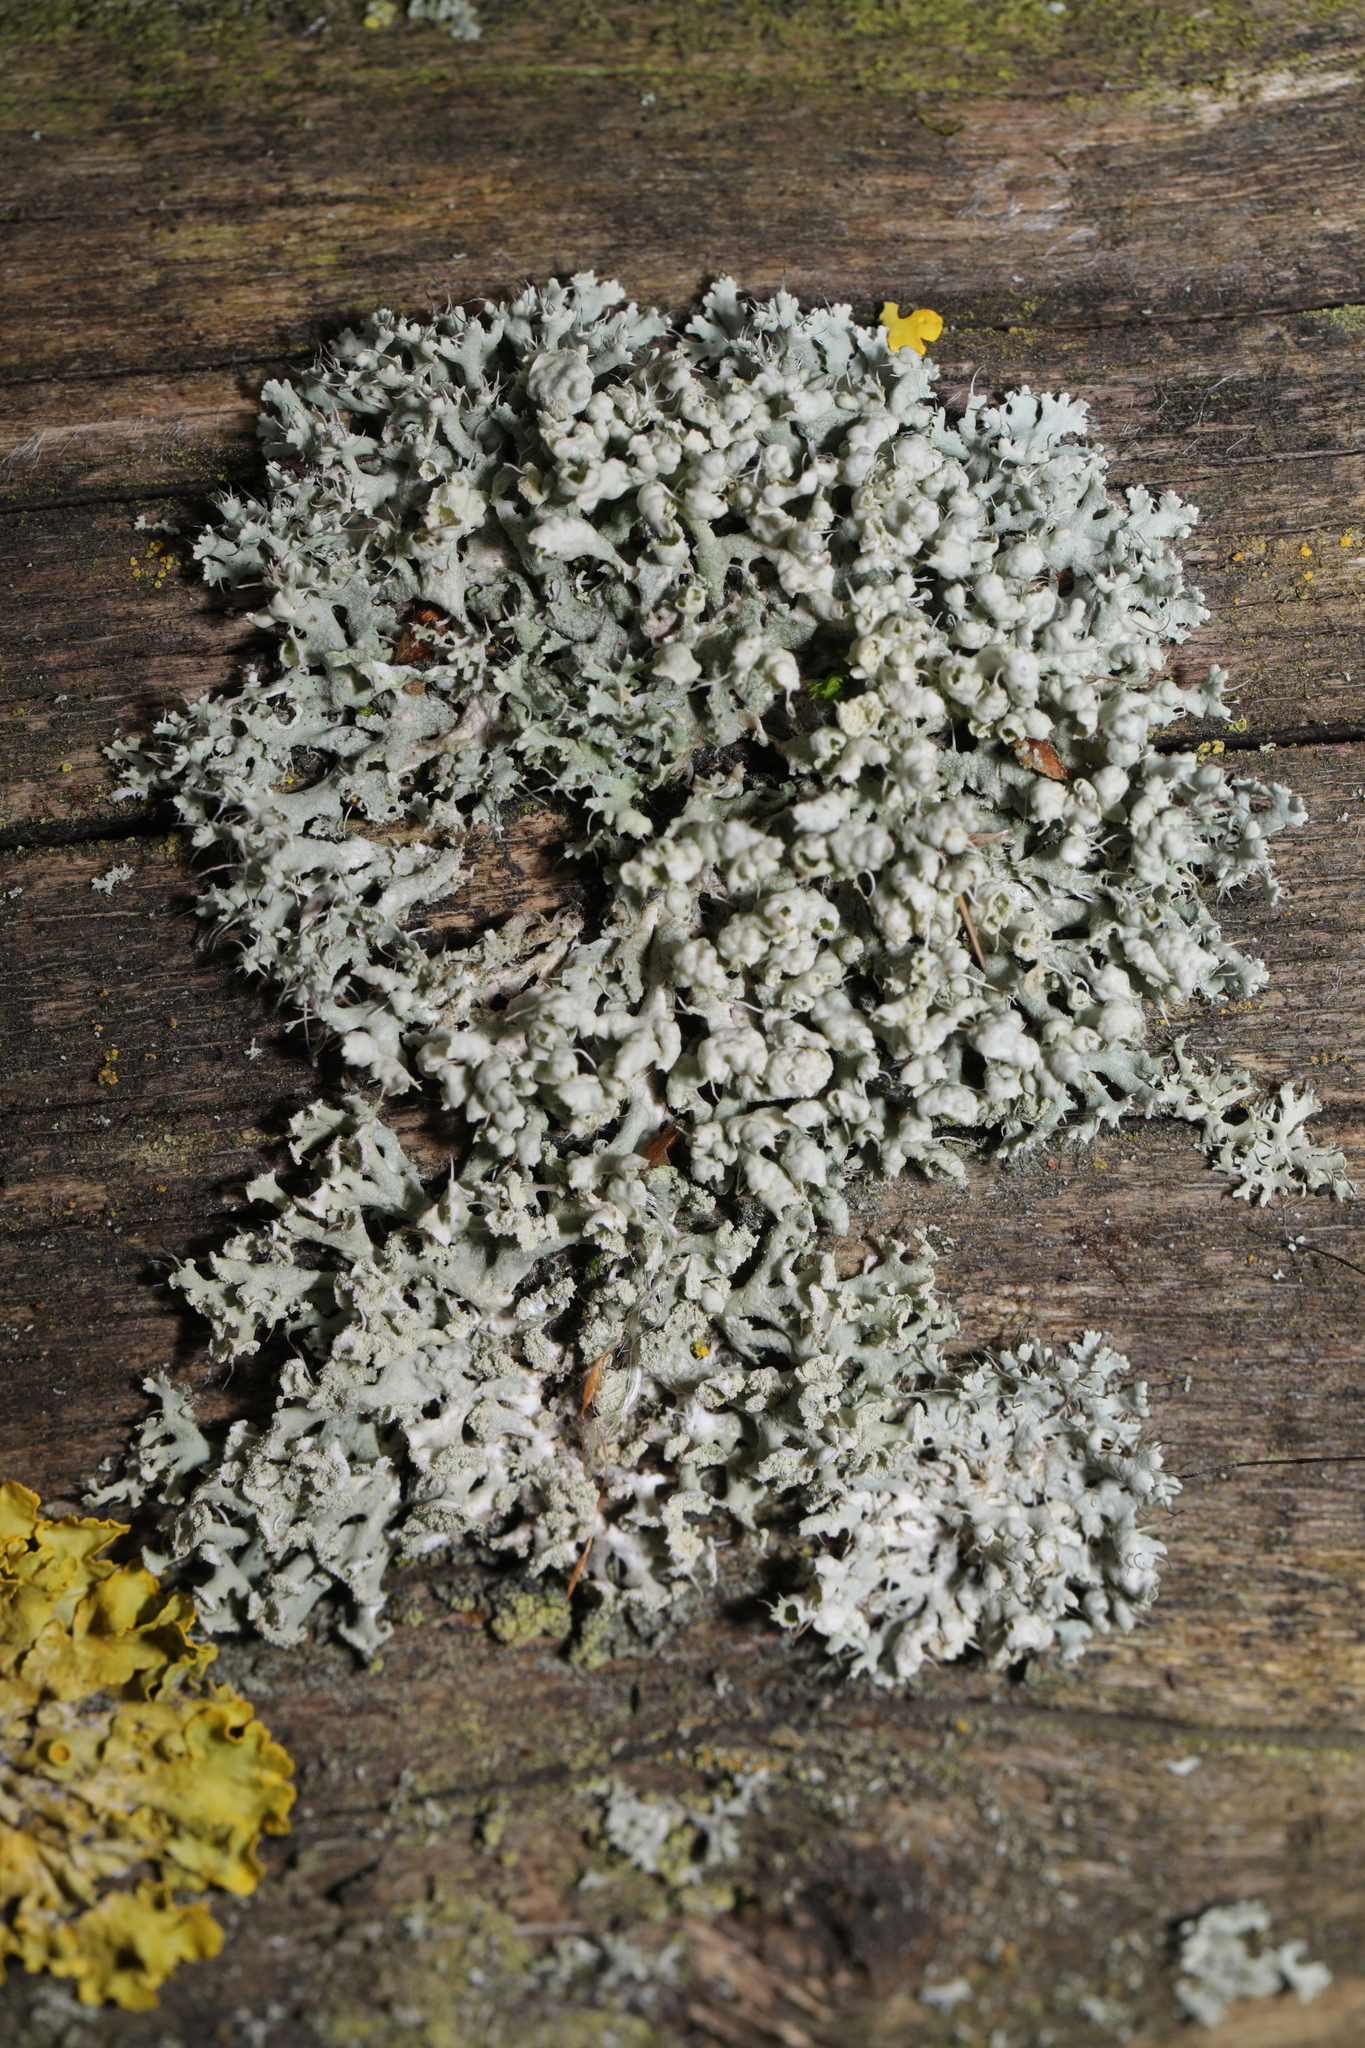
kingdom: Fungi
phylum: Ascomycota
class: Lecanoromycetes
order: Caliciales
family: Physciaceae
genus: Physcia
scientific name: Physcia adscendens
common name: Hooded rosette lichen
